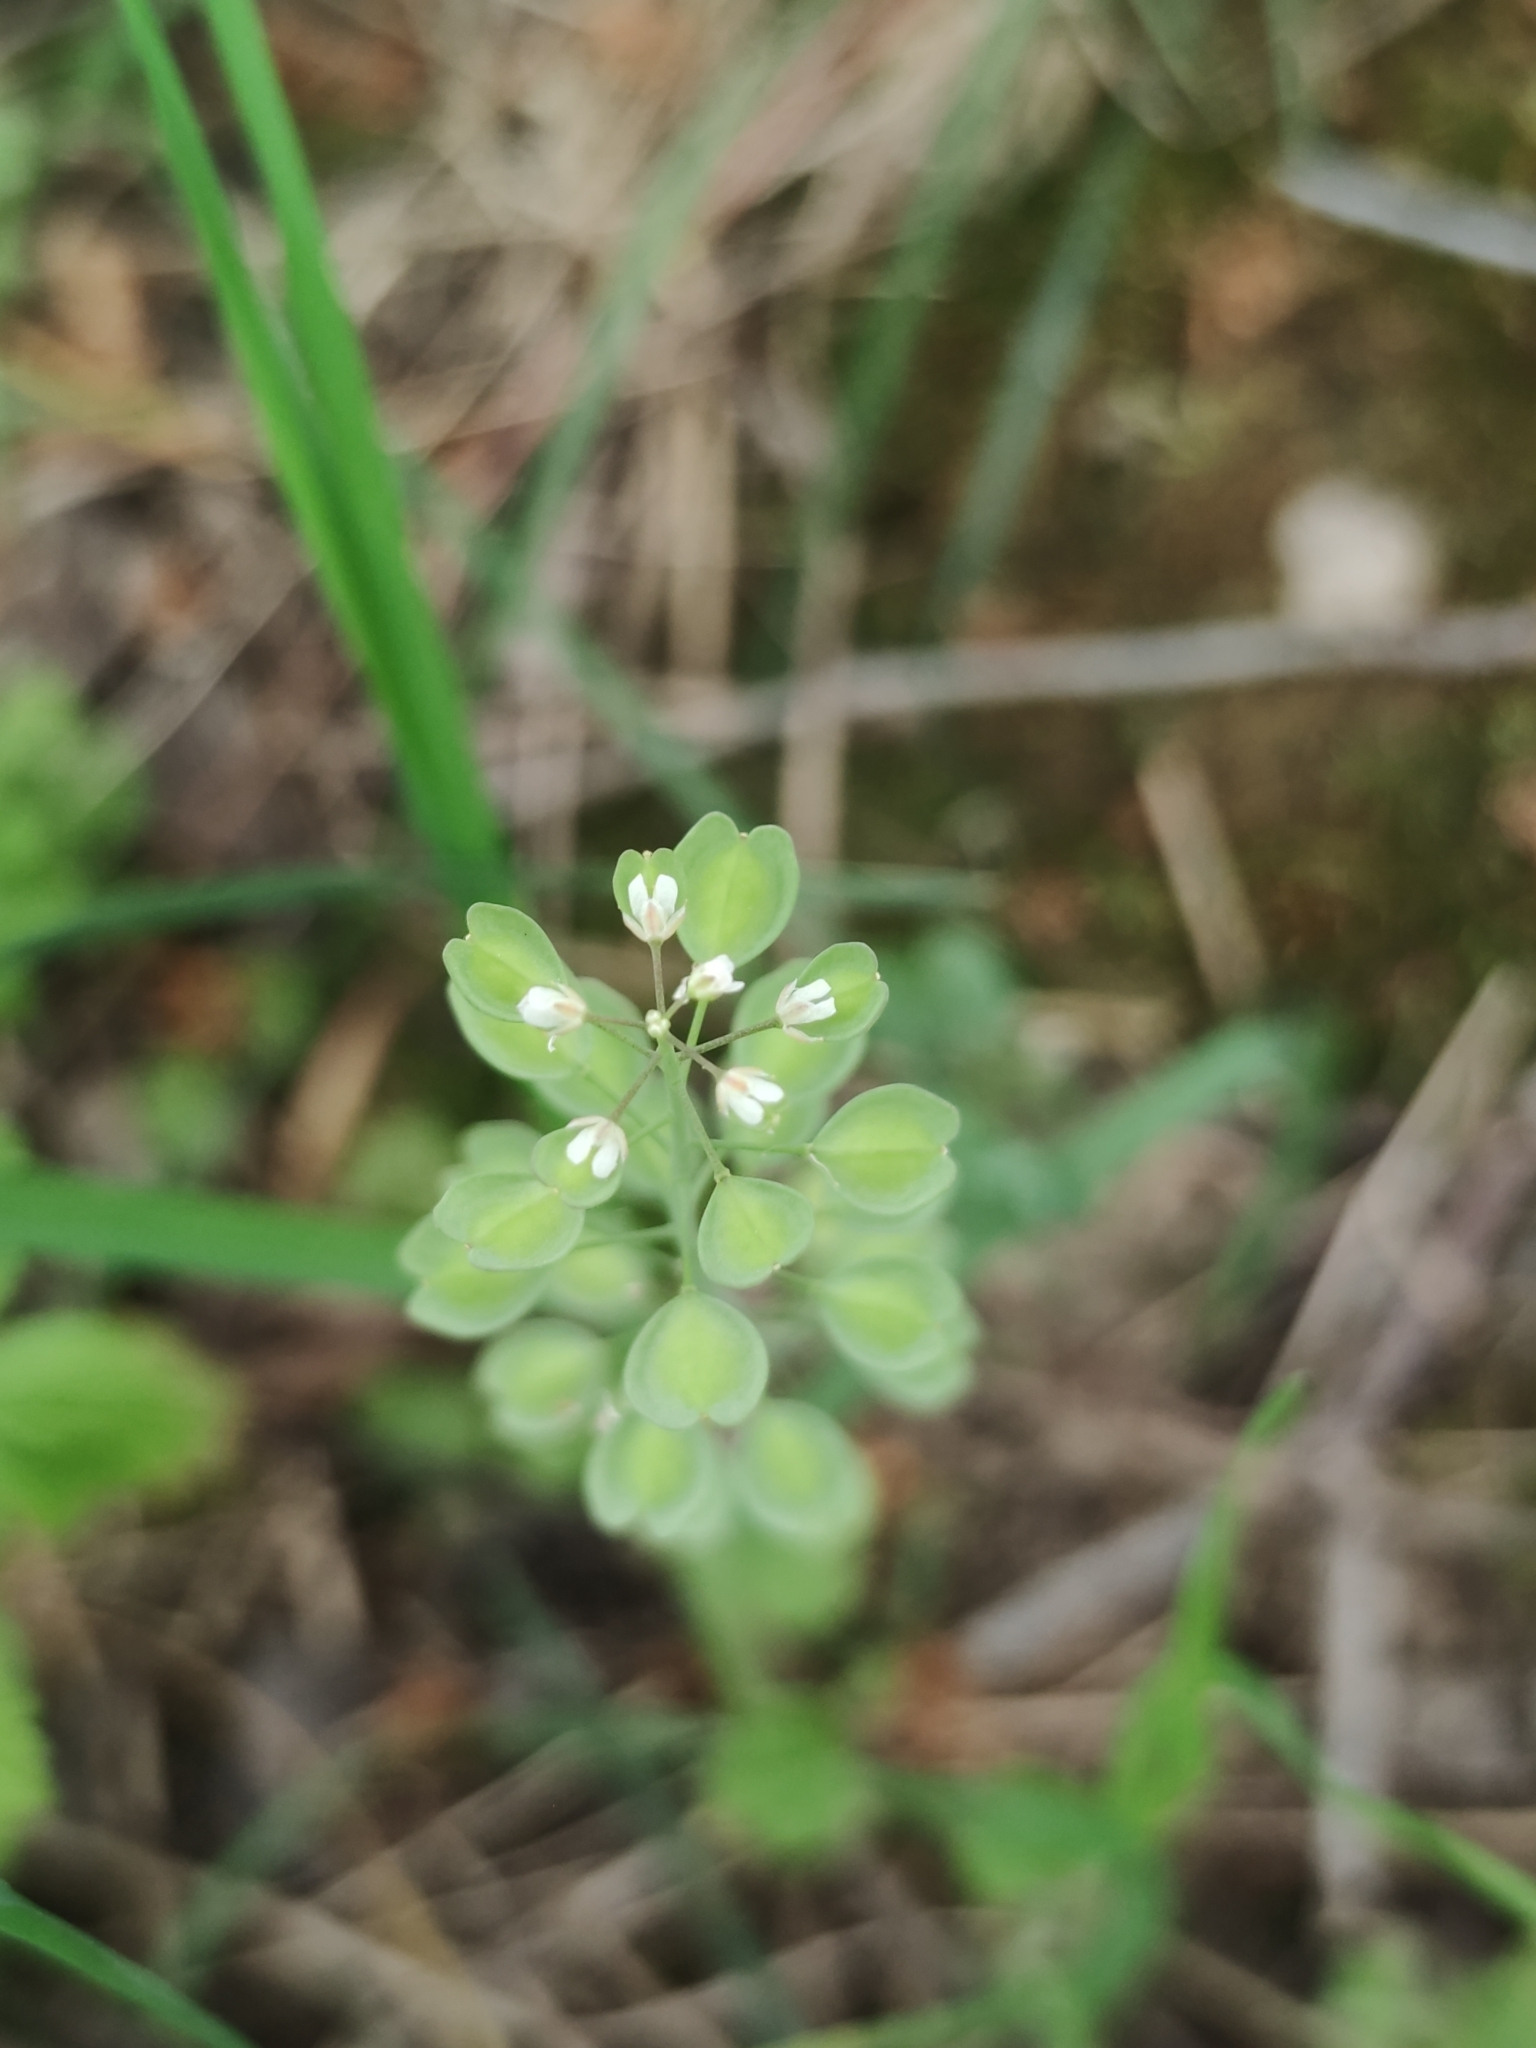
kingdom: Plantae
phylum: Tracheophyta
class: Magnoliopsida
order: Brassicales
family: Brassicaceae
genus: Noccaea
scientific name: Noccaea perfoliata
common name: Perfoliate pennycress
